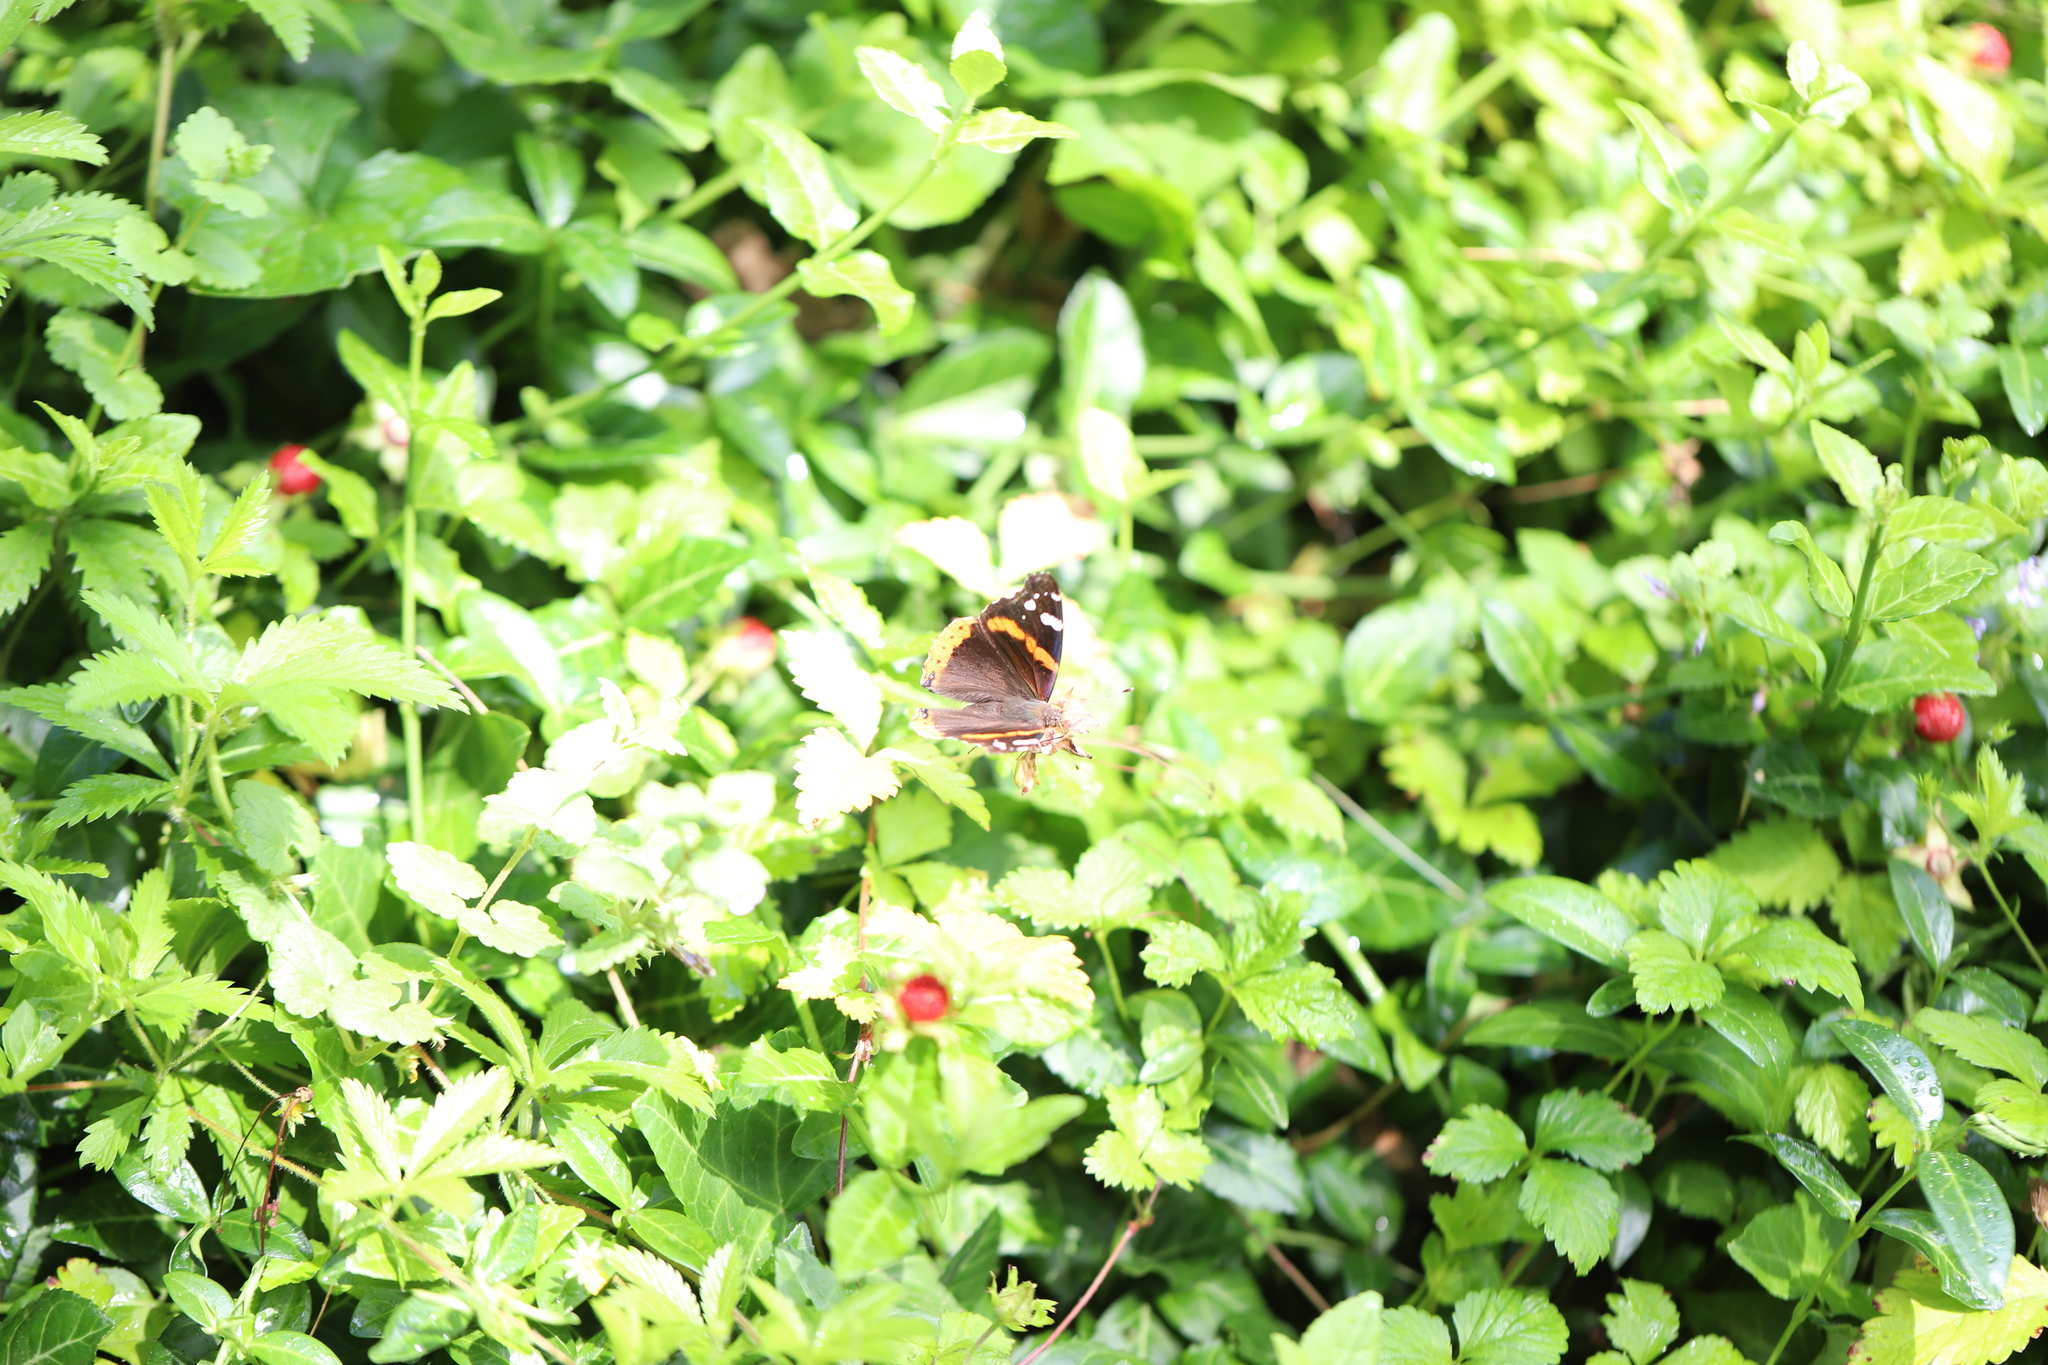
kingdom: Animalia
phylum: Arthropoda
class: Insecta
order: Lepidoptera
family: Nymphalidae
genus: Vanessa
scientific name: Vanessa atalanta
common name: Red admiral
